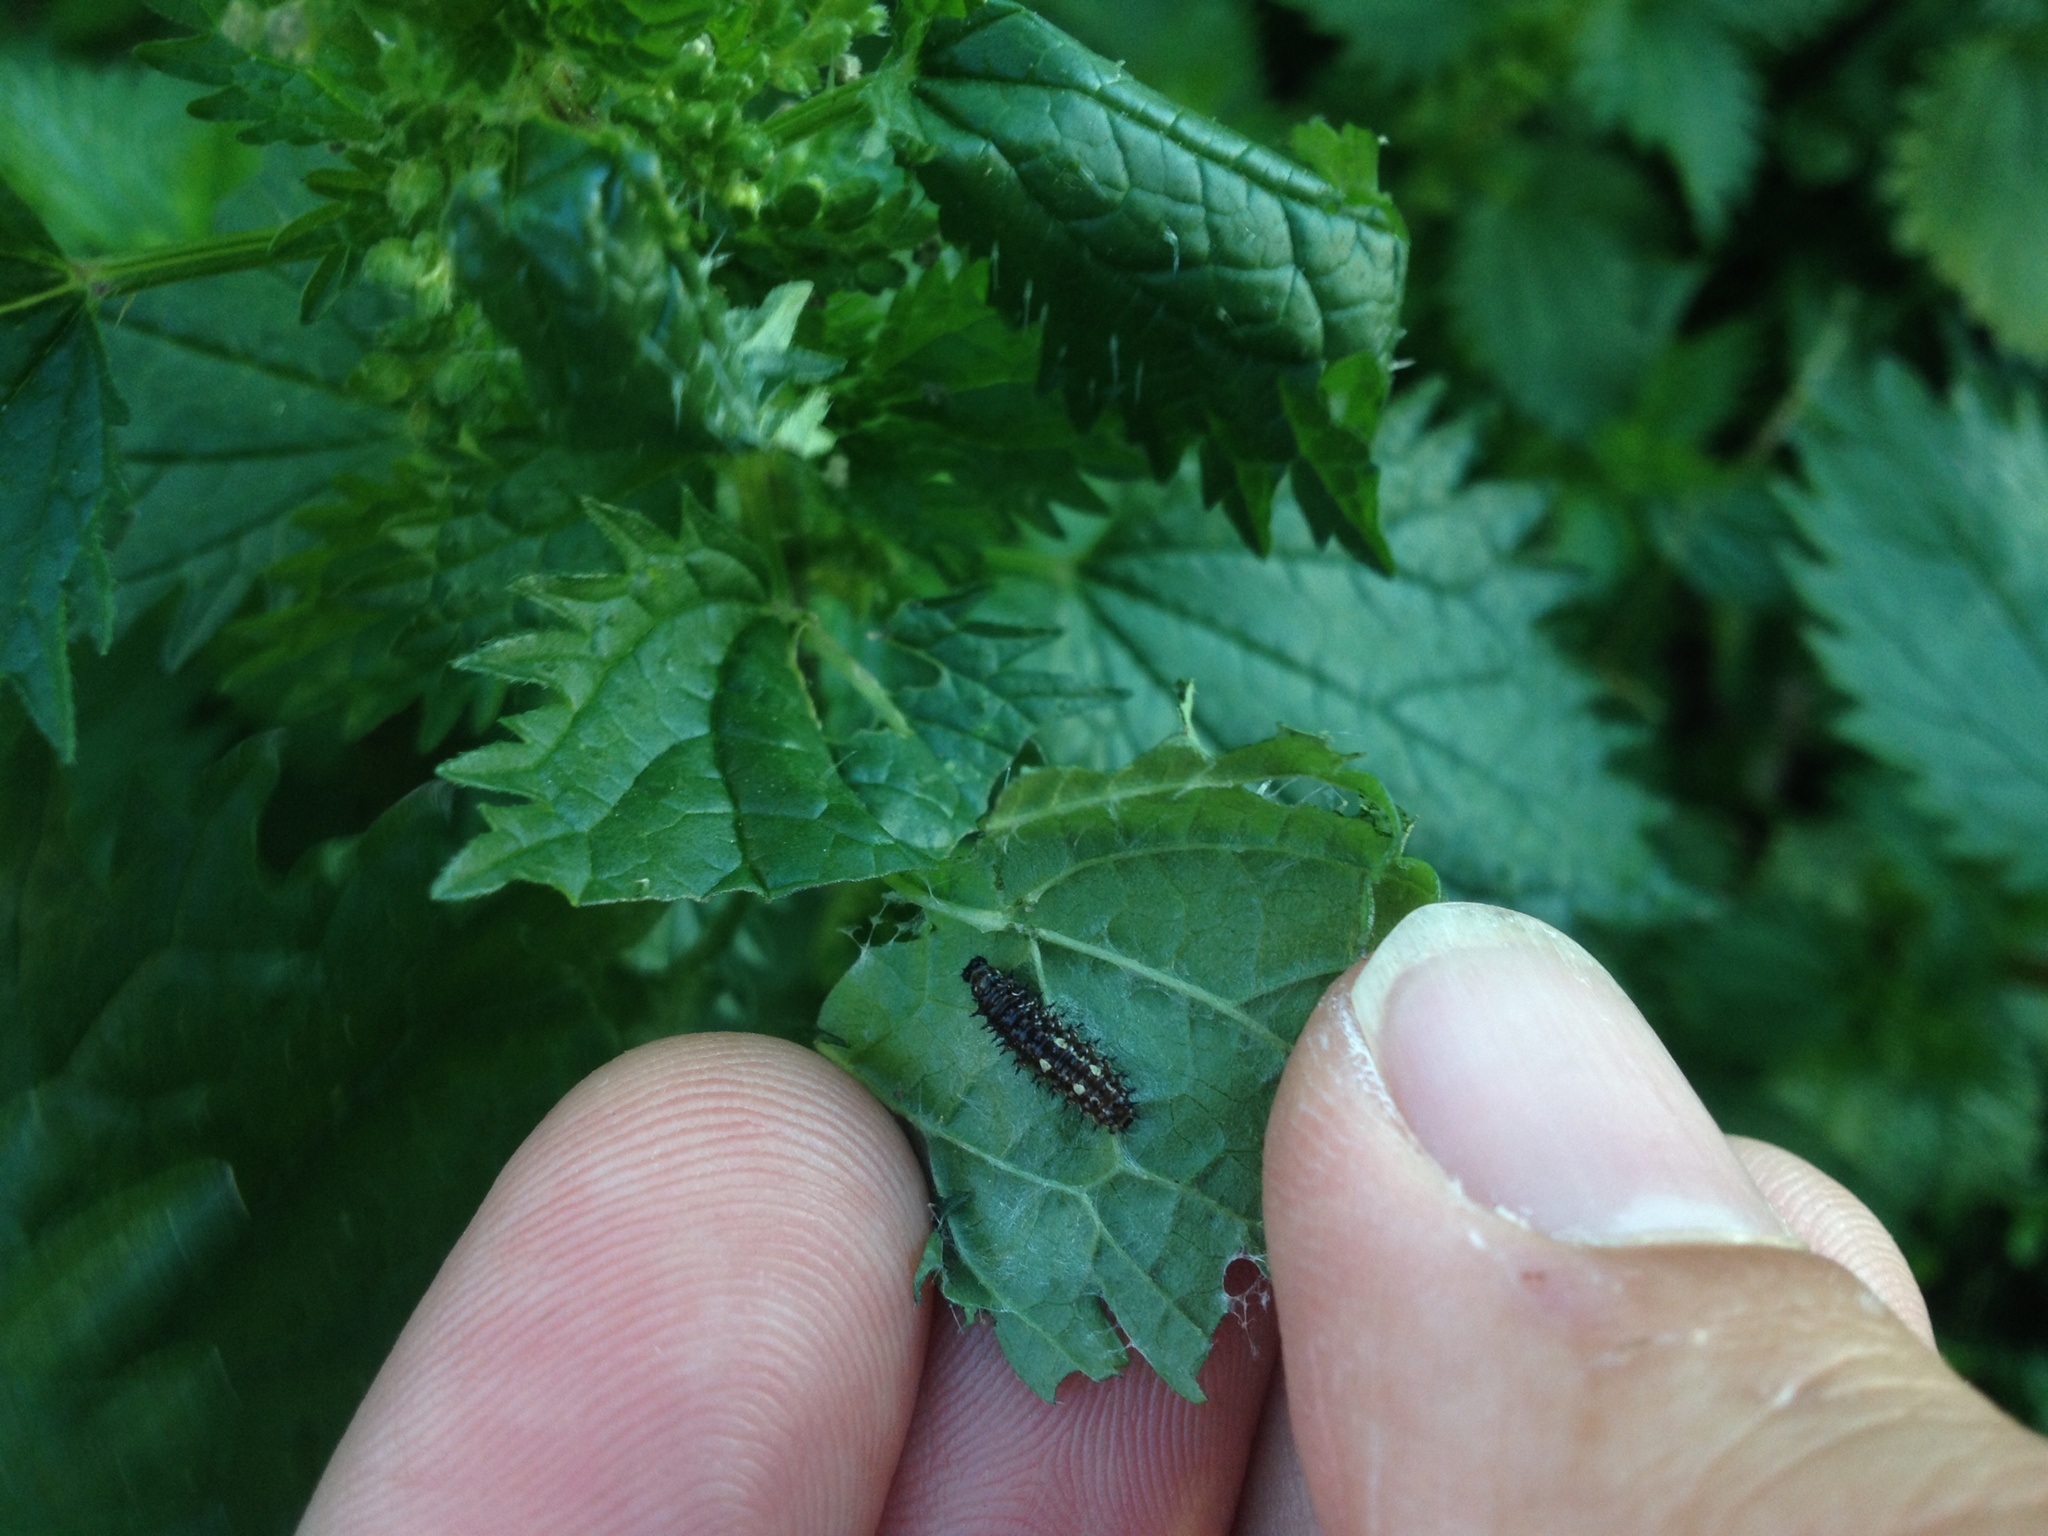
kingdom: Animalia
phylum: Arthropoda
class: Insecta
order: Lepidoptera
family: Nymphalidae
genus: Vanessa
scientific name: Vanessa itea
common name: Yellow admiral
